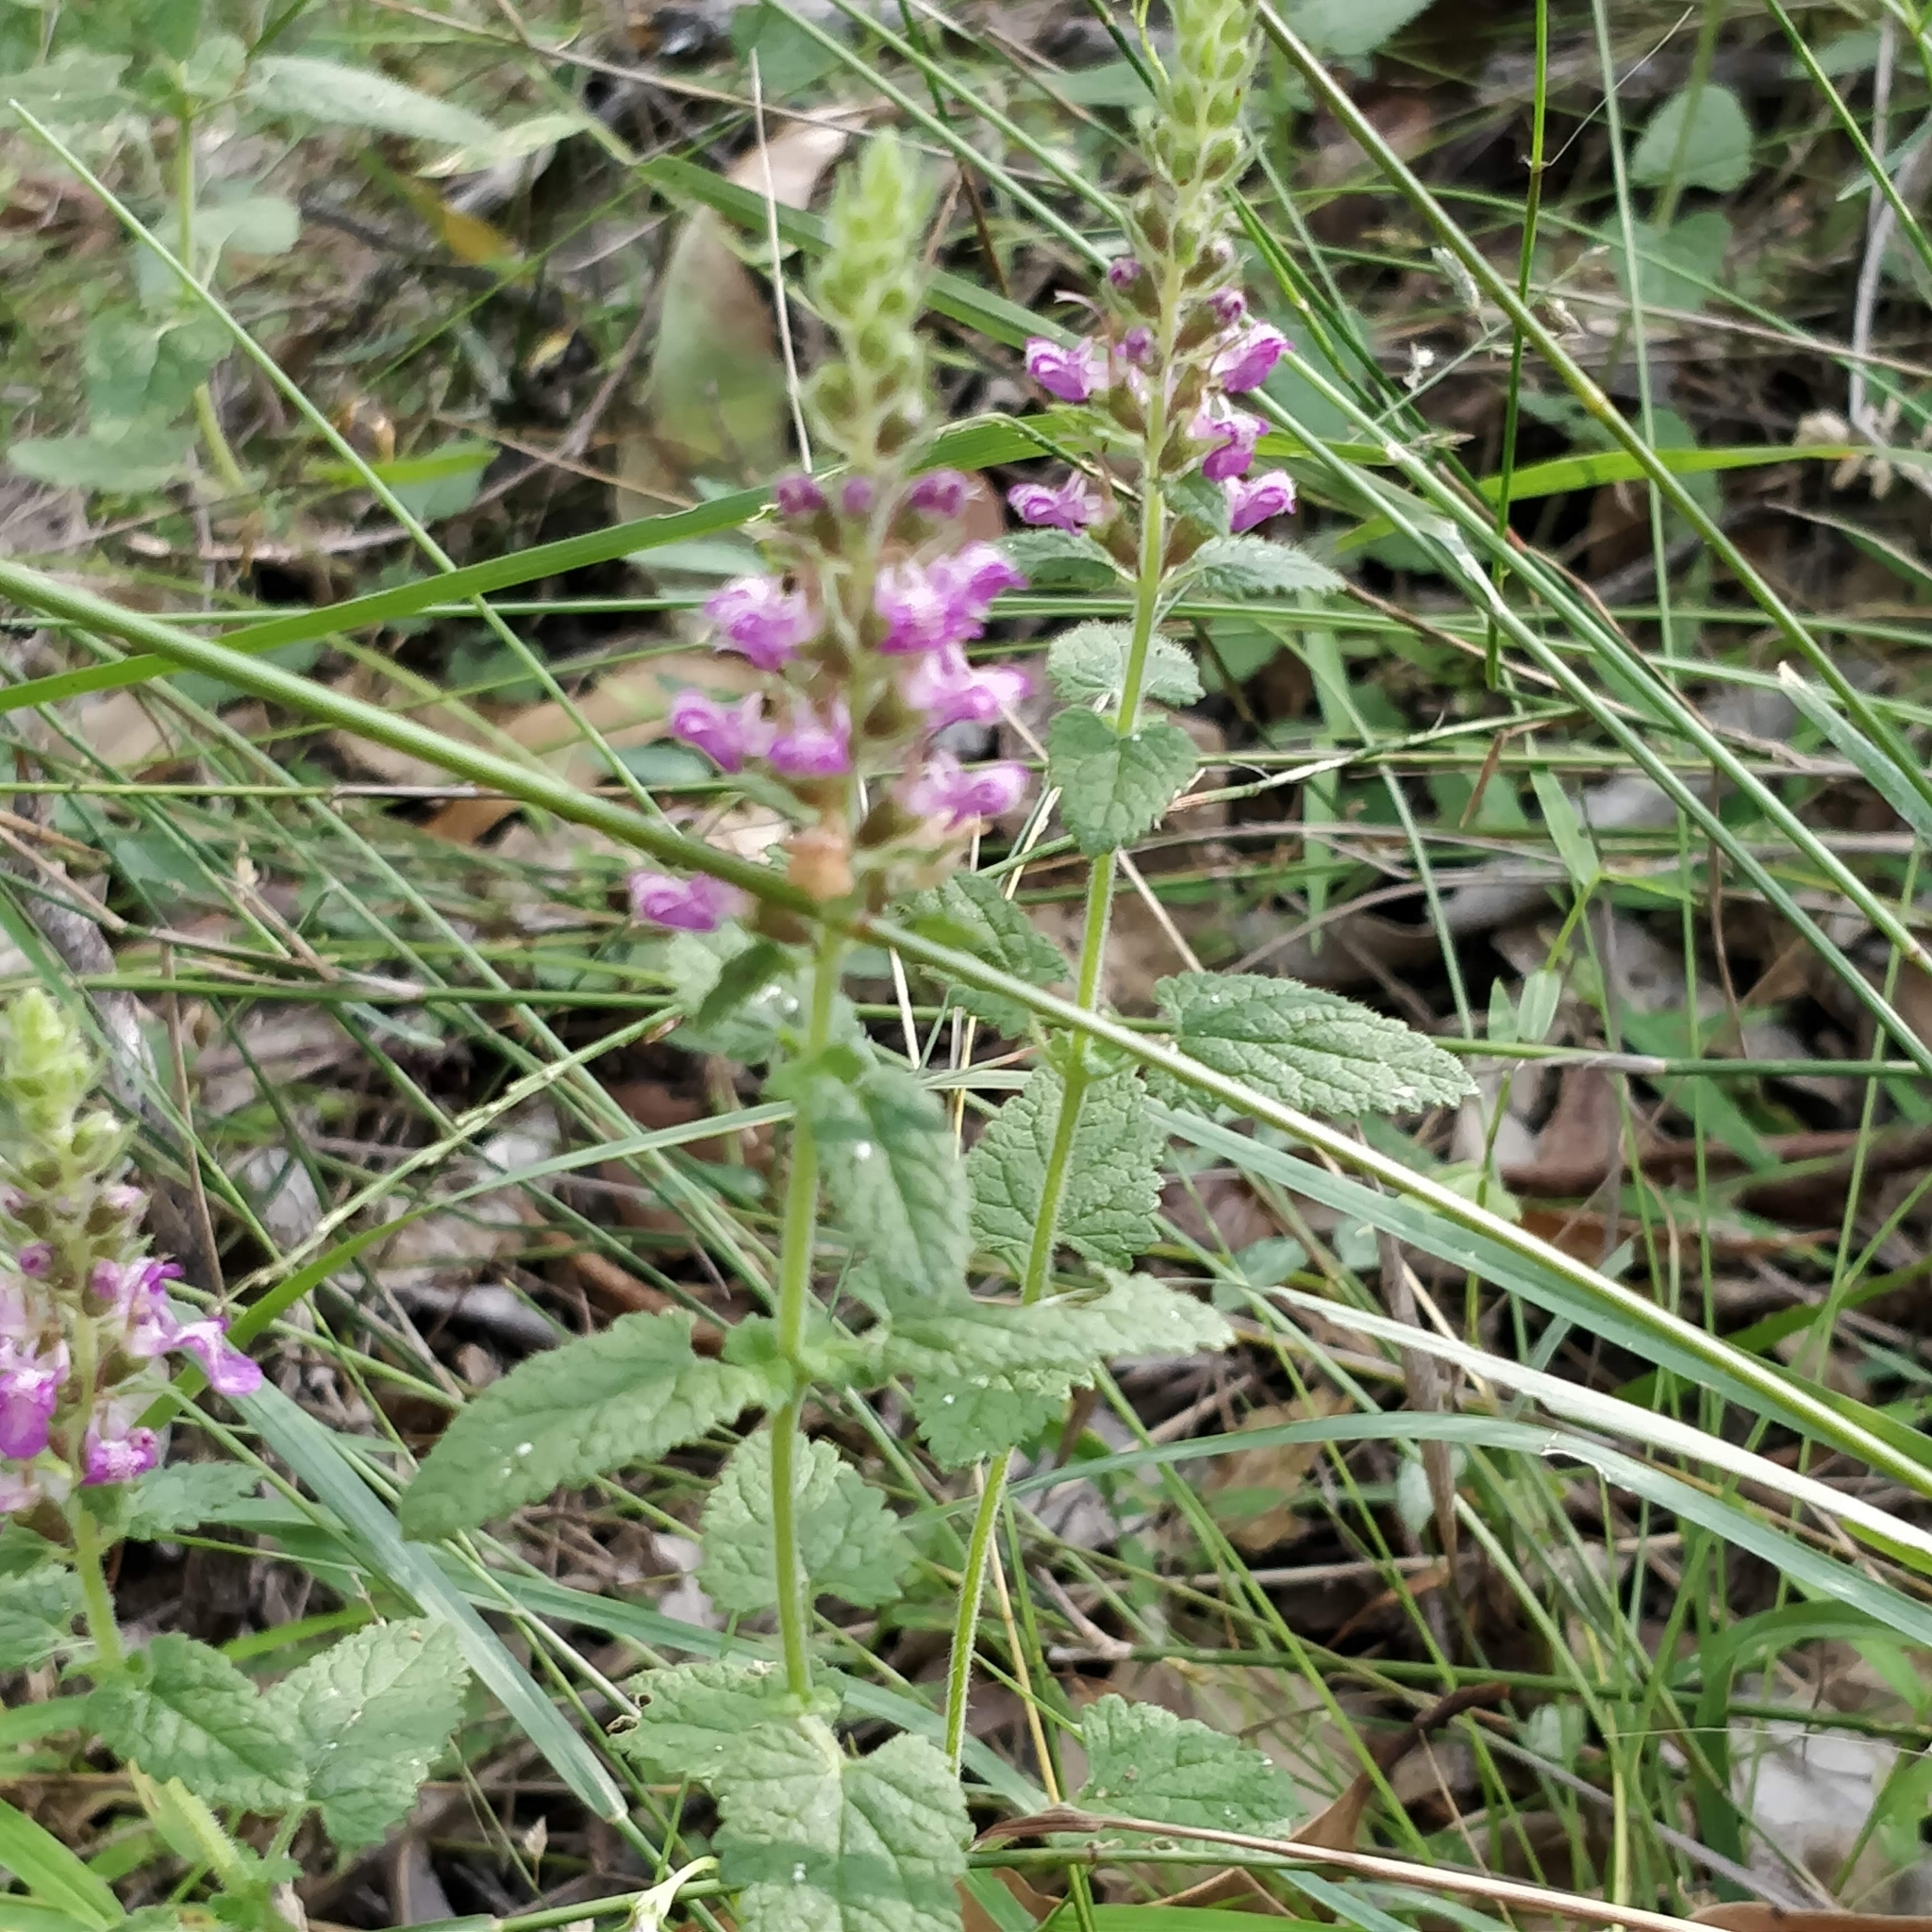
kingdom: Plantae
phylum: Tracheophyta
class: Magnoliopsida
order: Lamiales
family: Lamiaceae
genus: Teucrium
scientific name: Teucrium argutum
